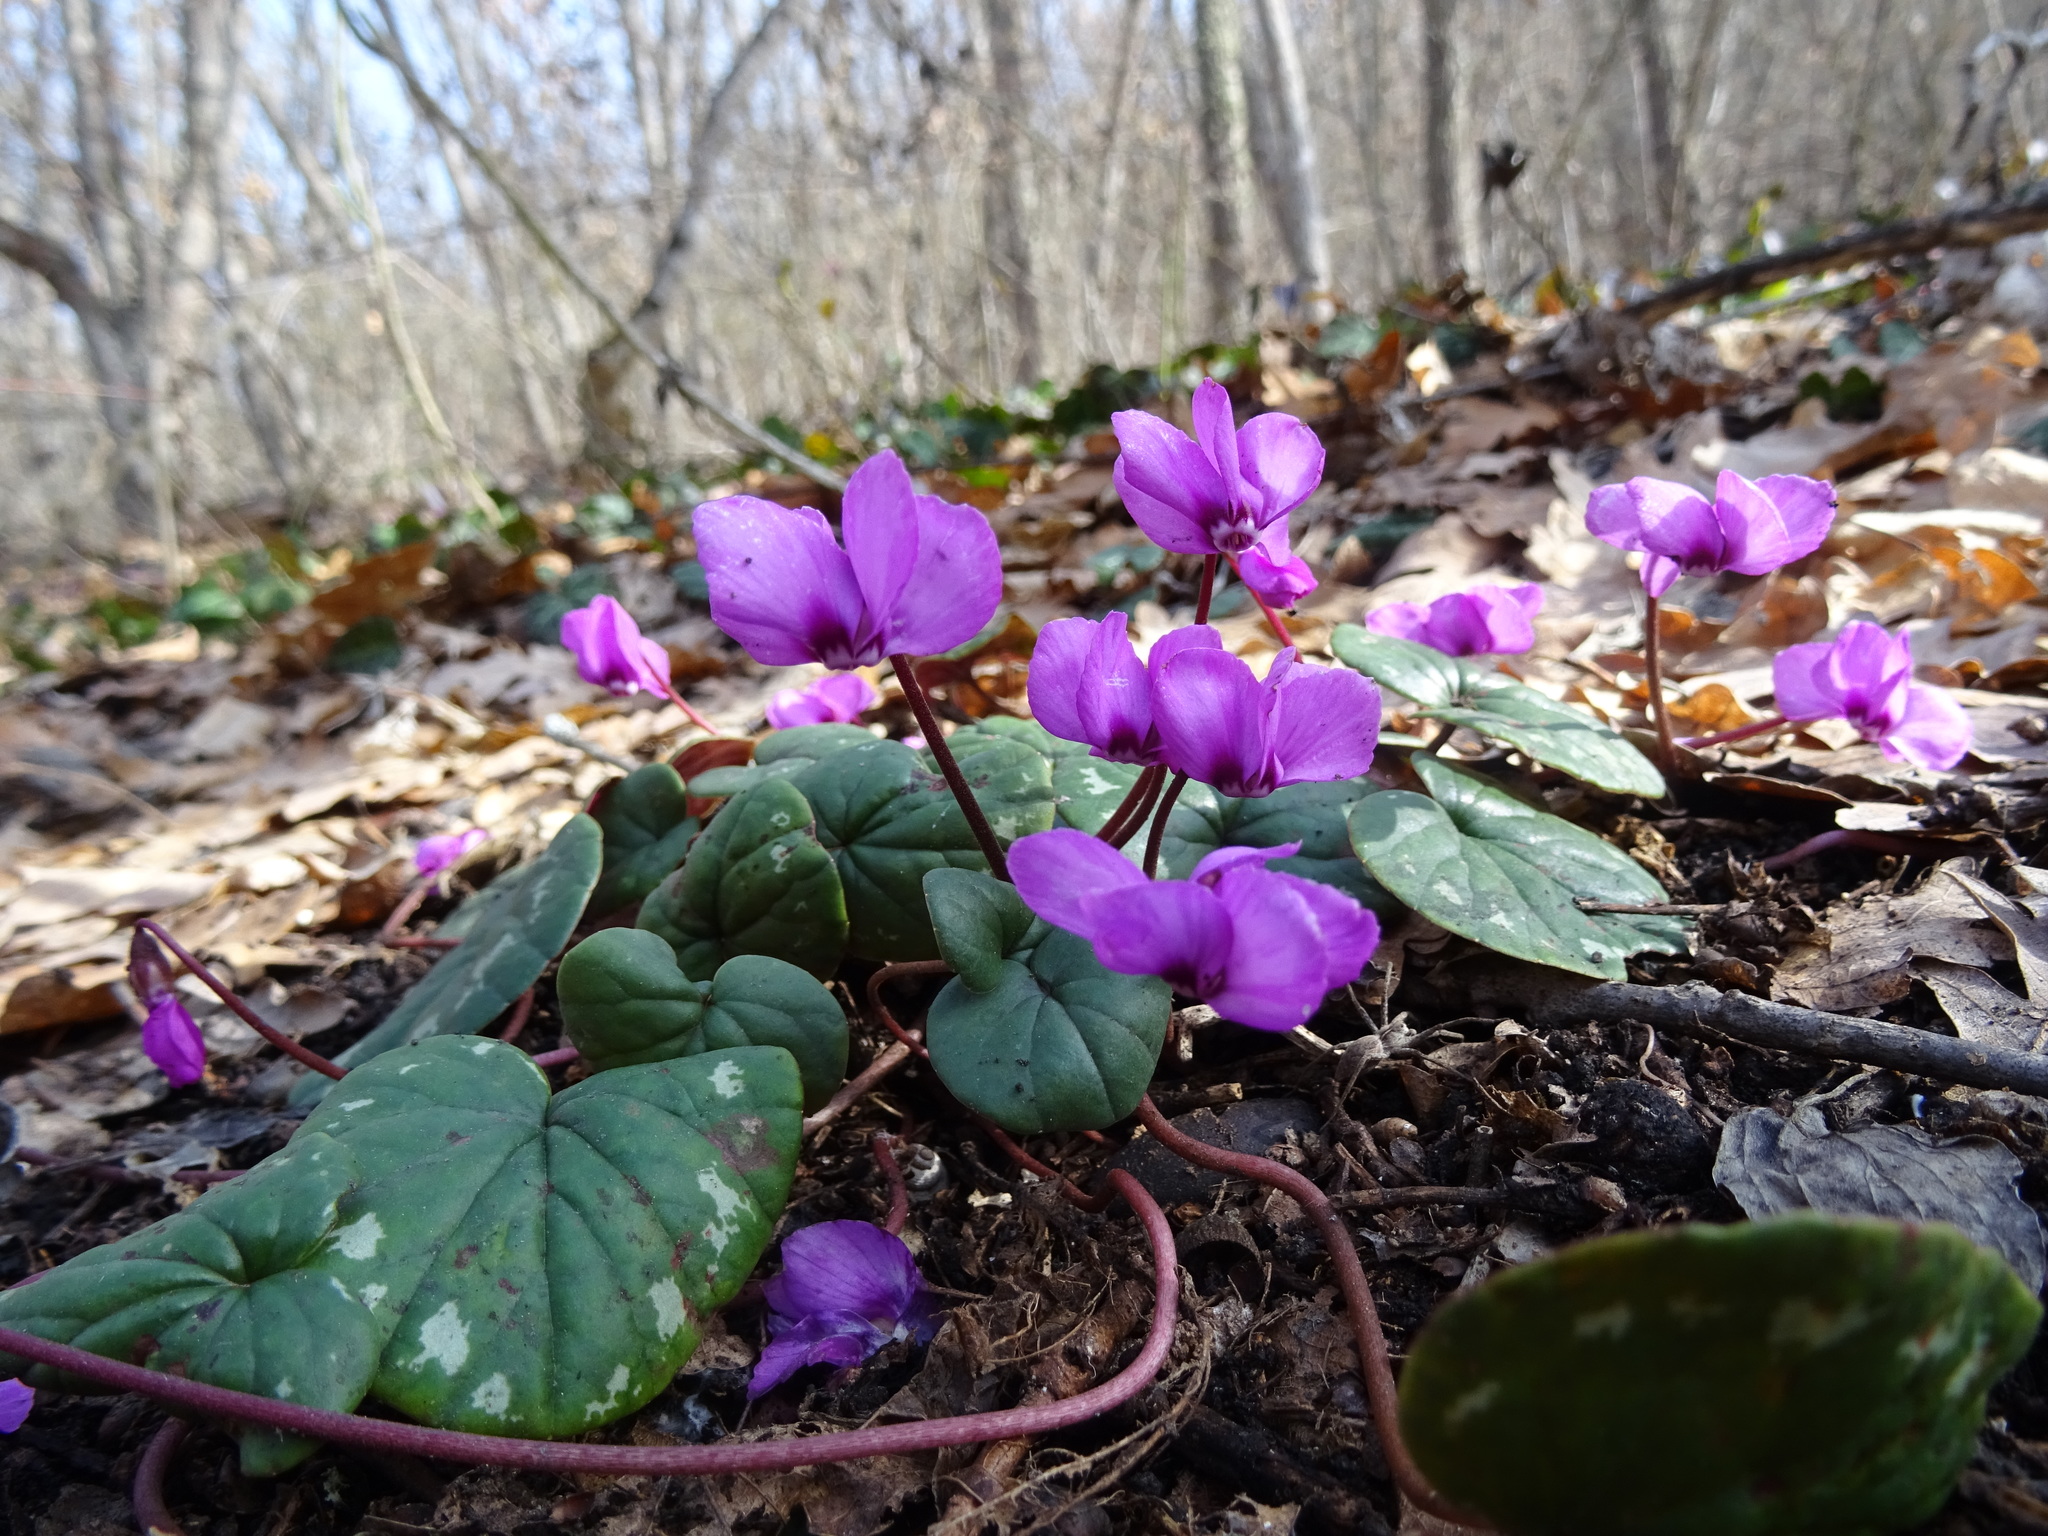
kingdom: Plantae
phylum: Tracheophyta
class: Magnoliopsida
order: Ericales
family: Primulaceae
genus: Cyclamen
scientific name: Cyclamen coum
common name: Eastern sowbread
